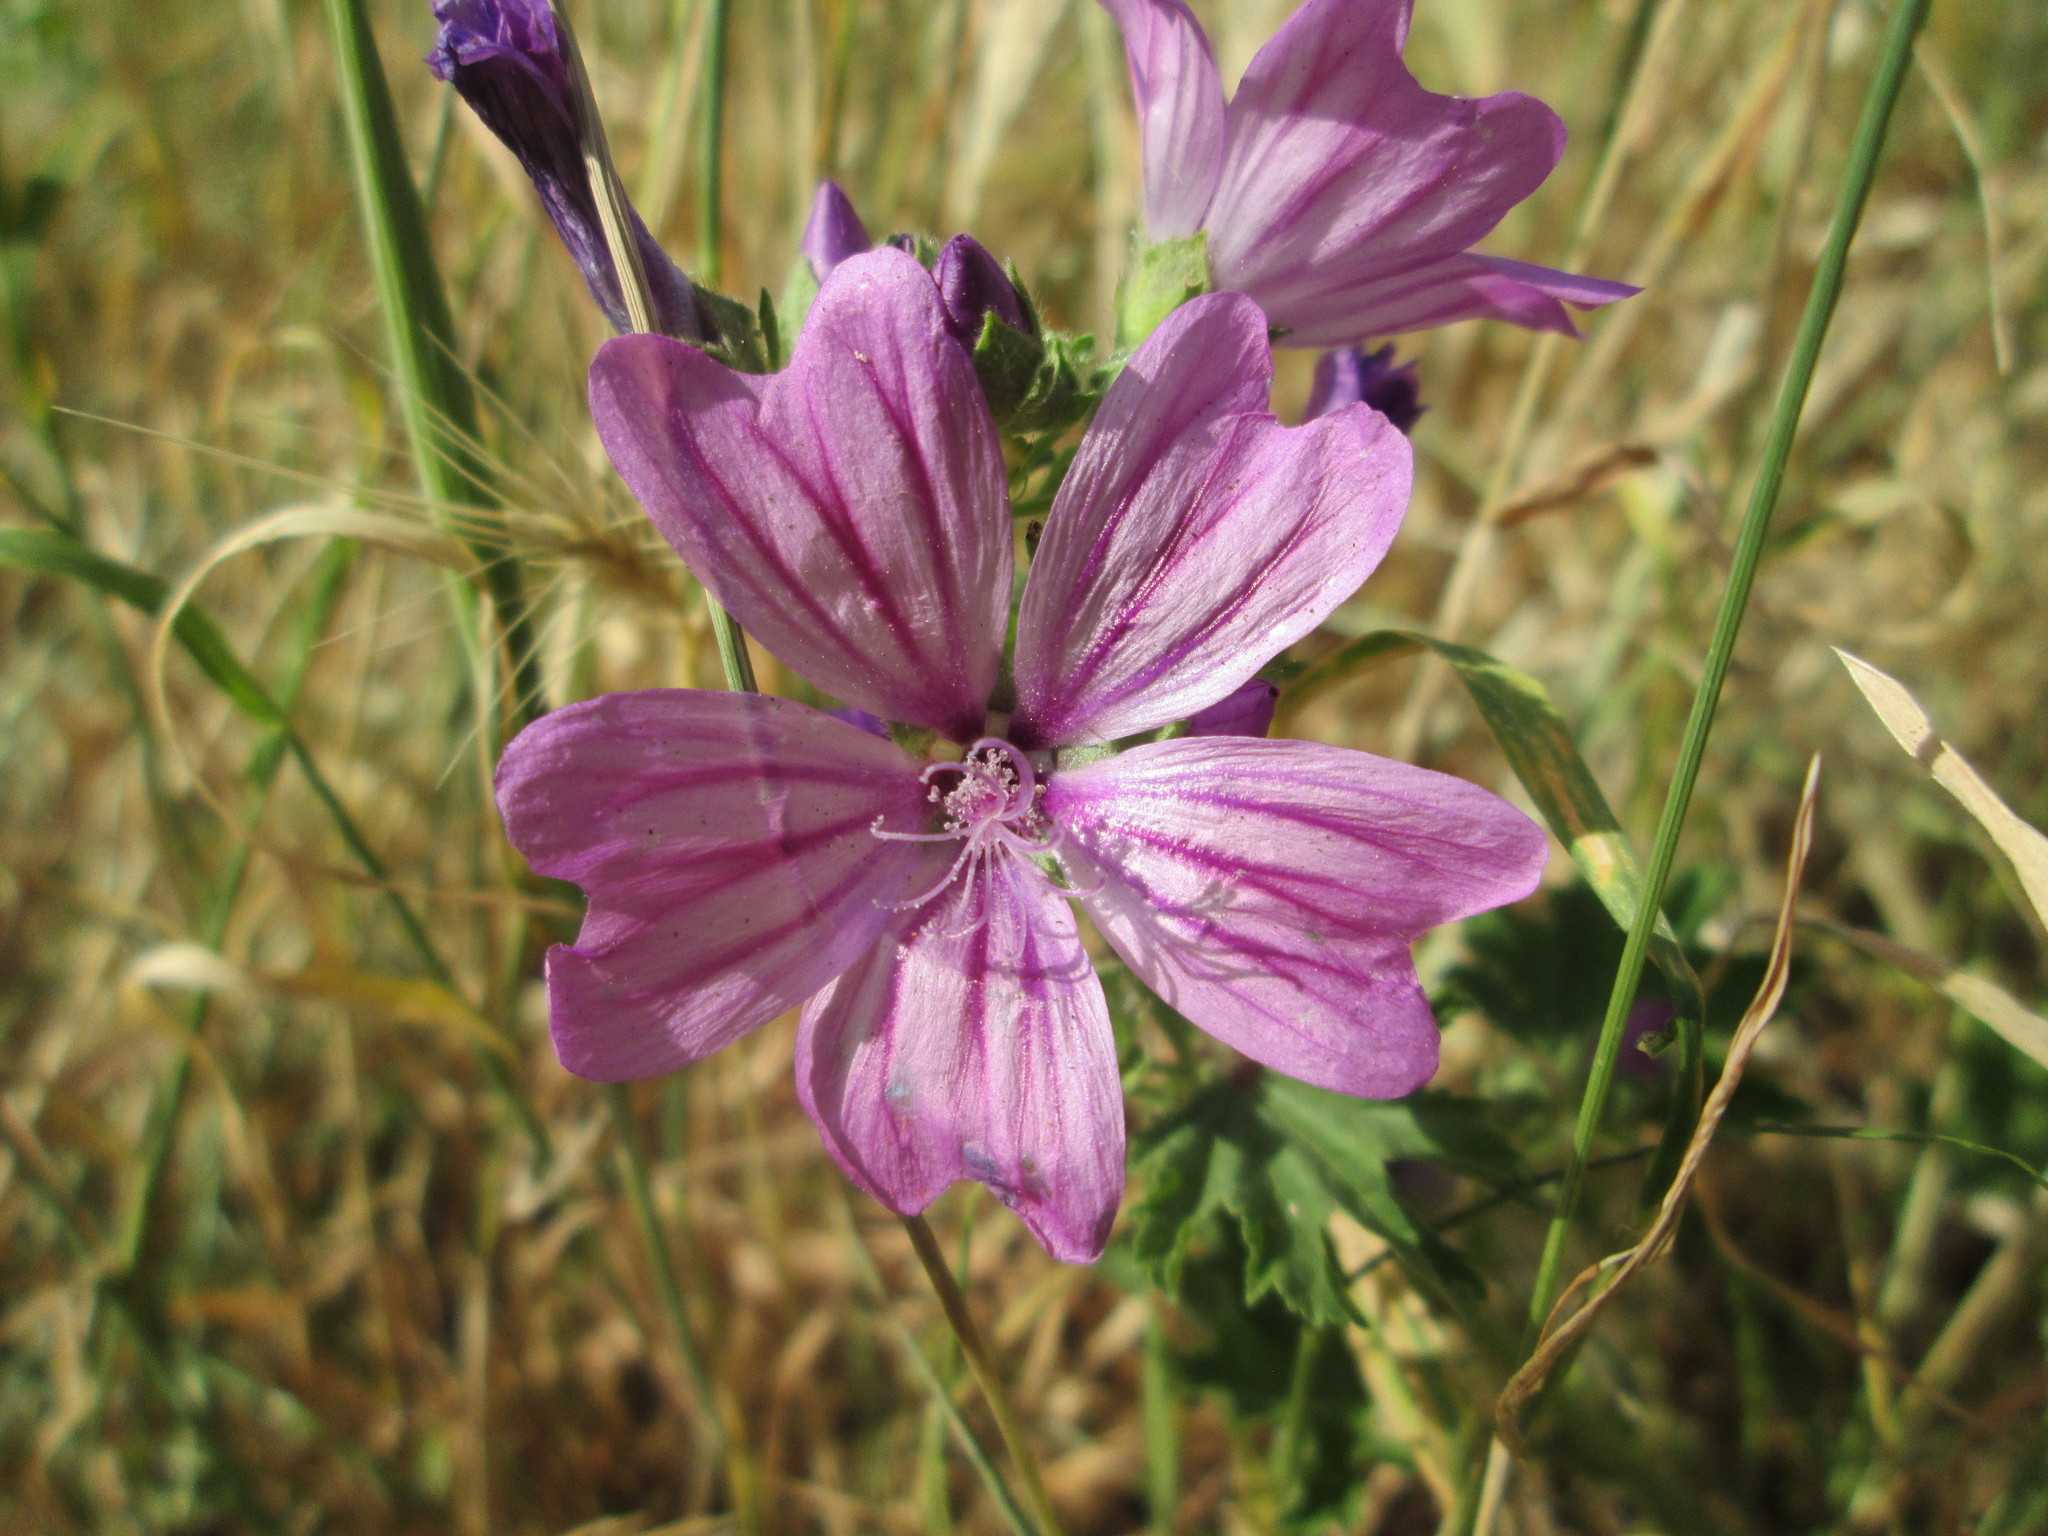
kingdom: Plantae
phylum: Tracheophyta
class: Magnoliopsida
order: Malvales
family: Malvaceae
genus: Malva
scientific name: Malva sylvestris
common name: Common mallow
